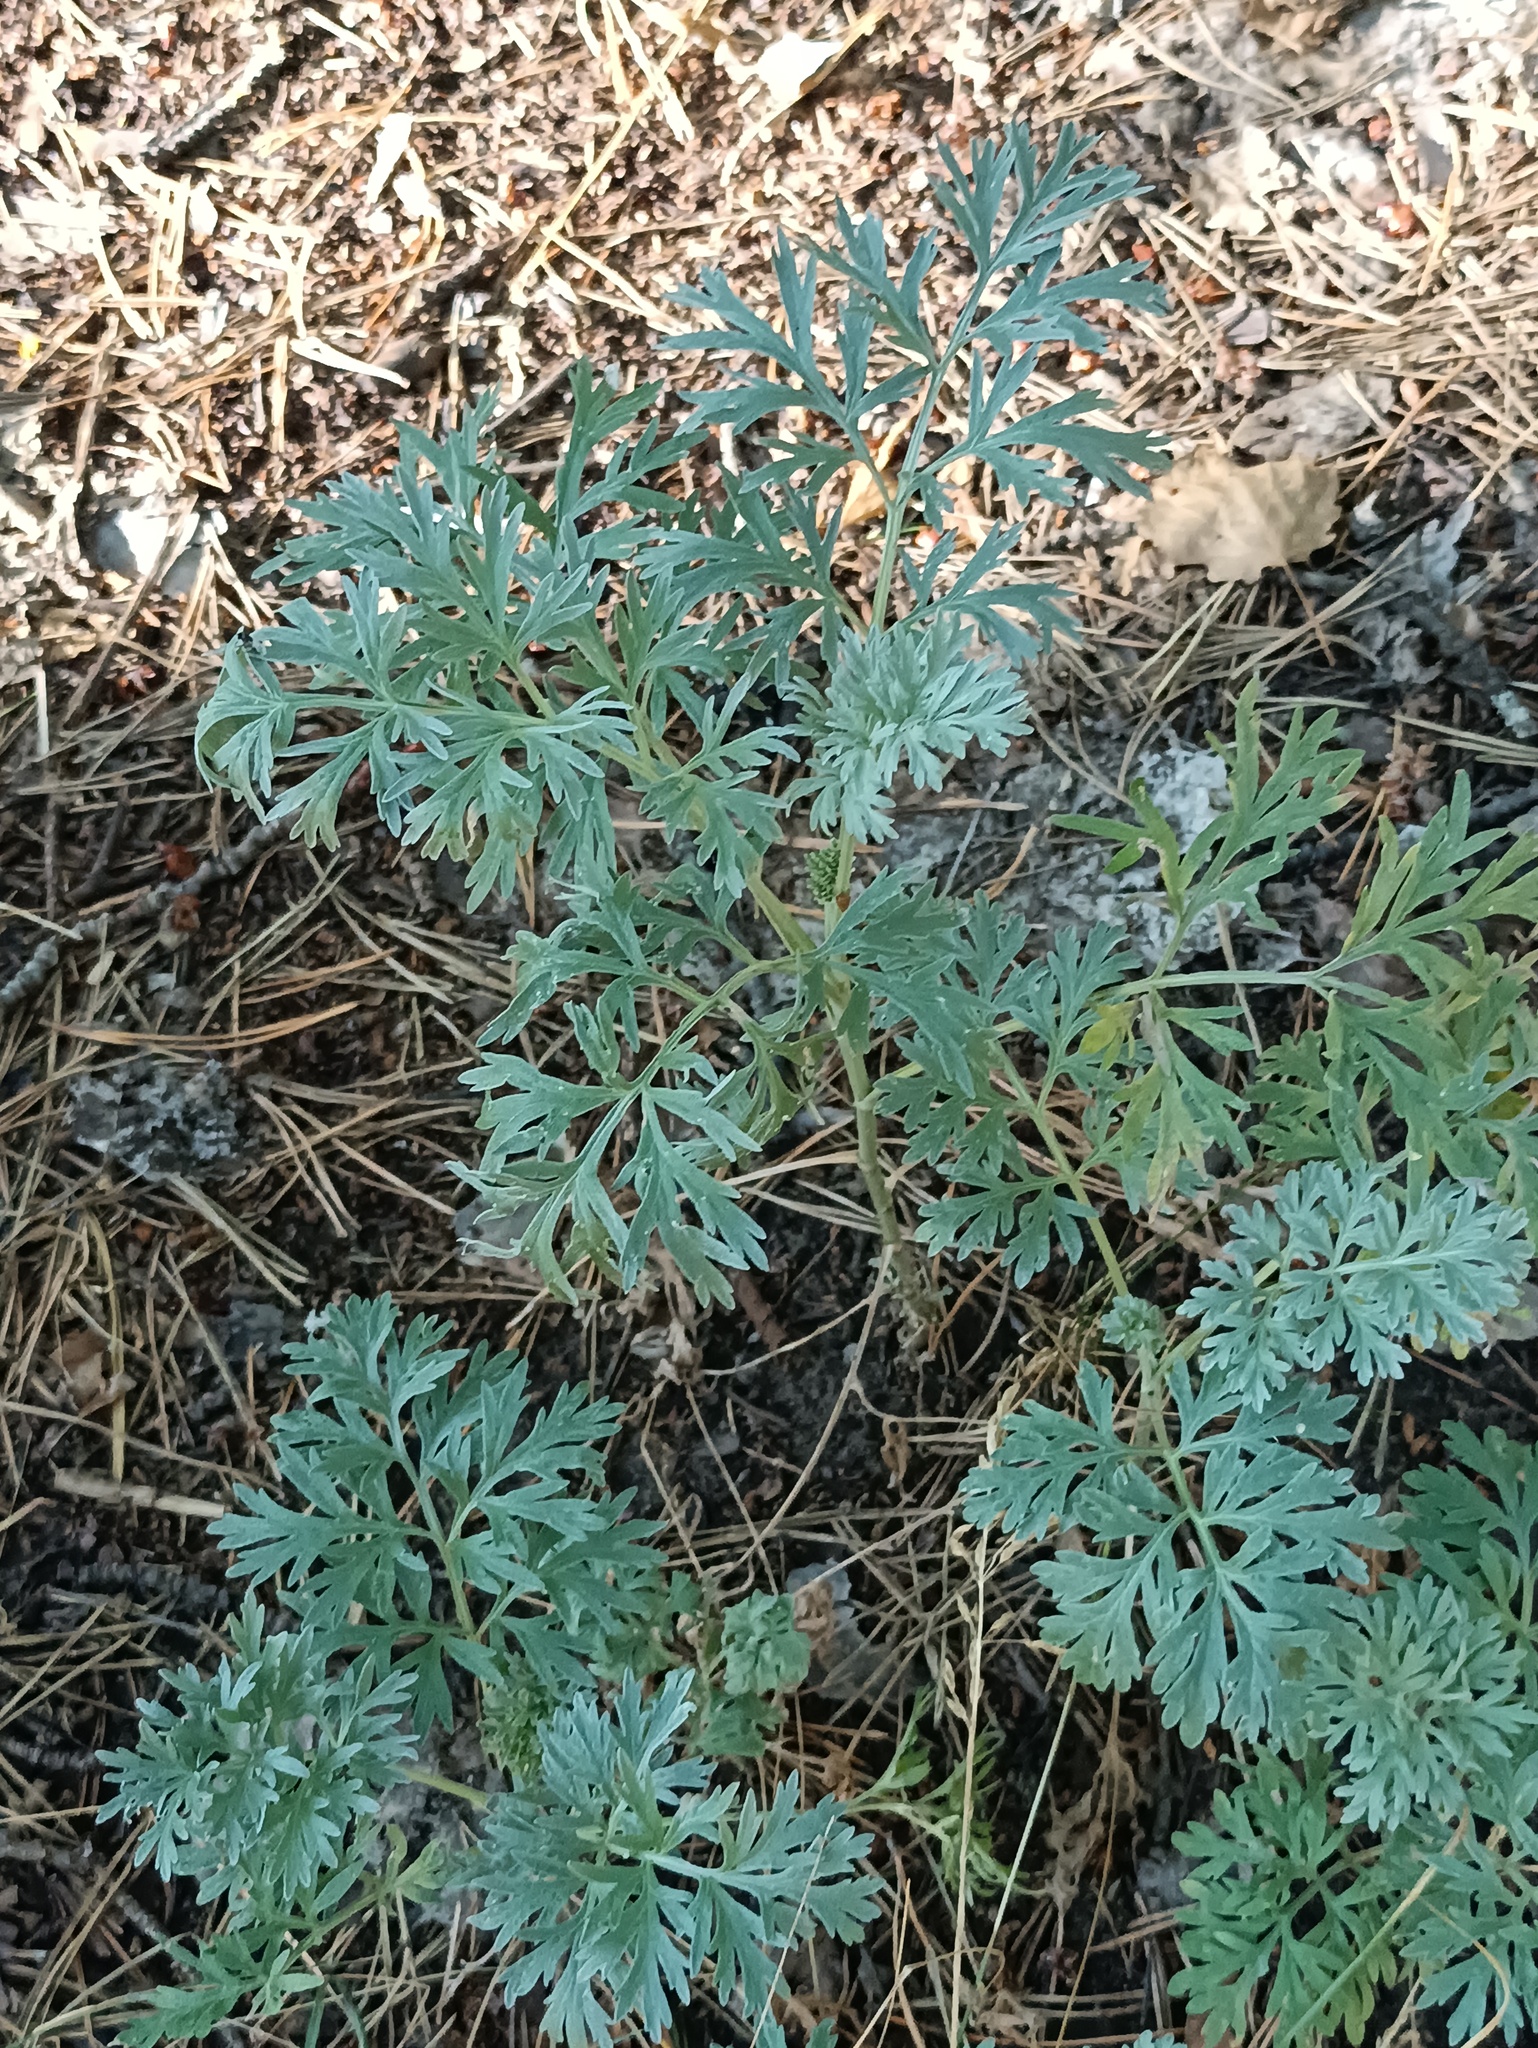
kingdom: Plantae
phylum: Tracheophyta
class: Magnoliopsida
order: Asterales
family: Asteraceae
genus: Artemisia
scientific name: Artemisia absinthium
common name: Wormwood
